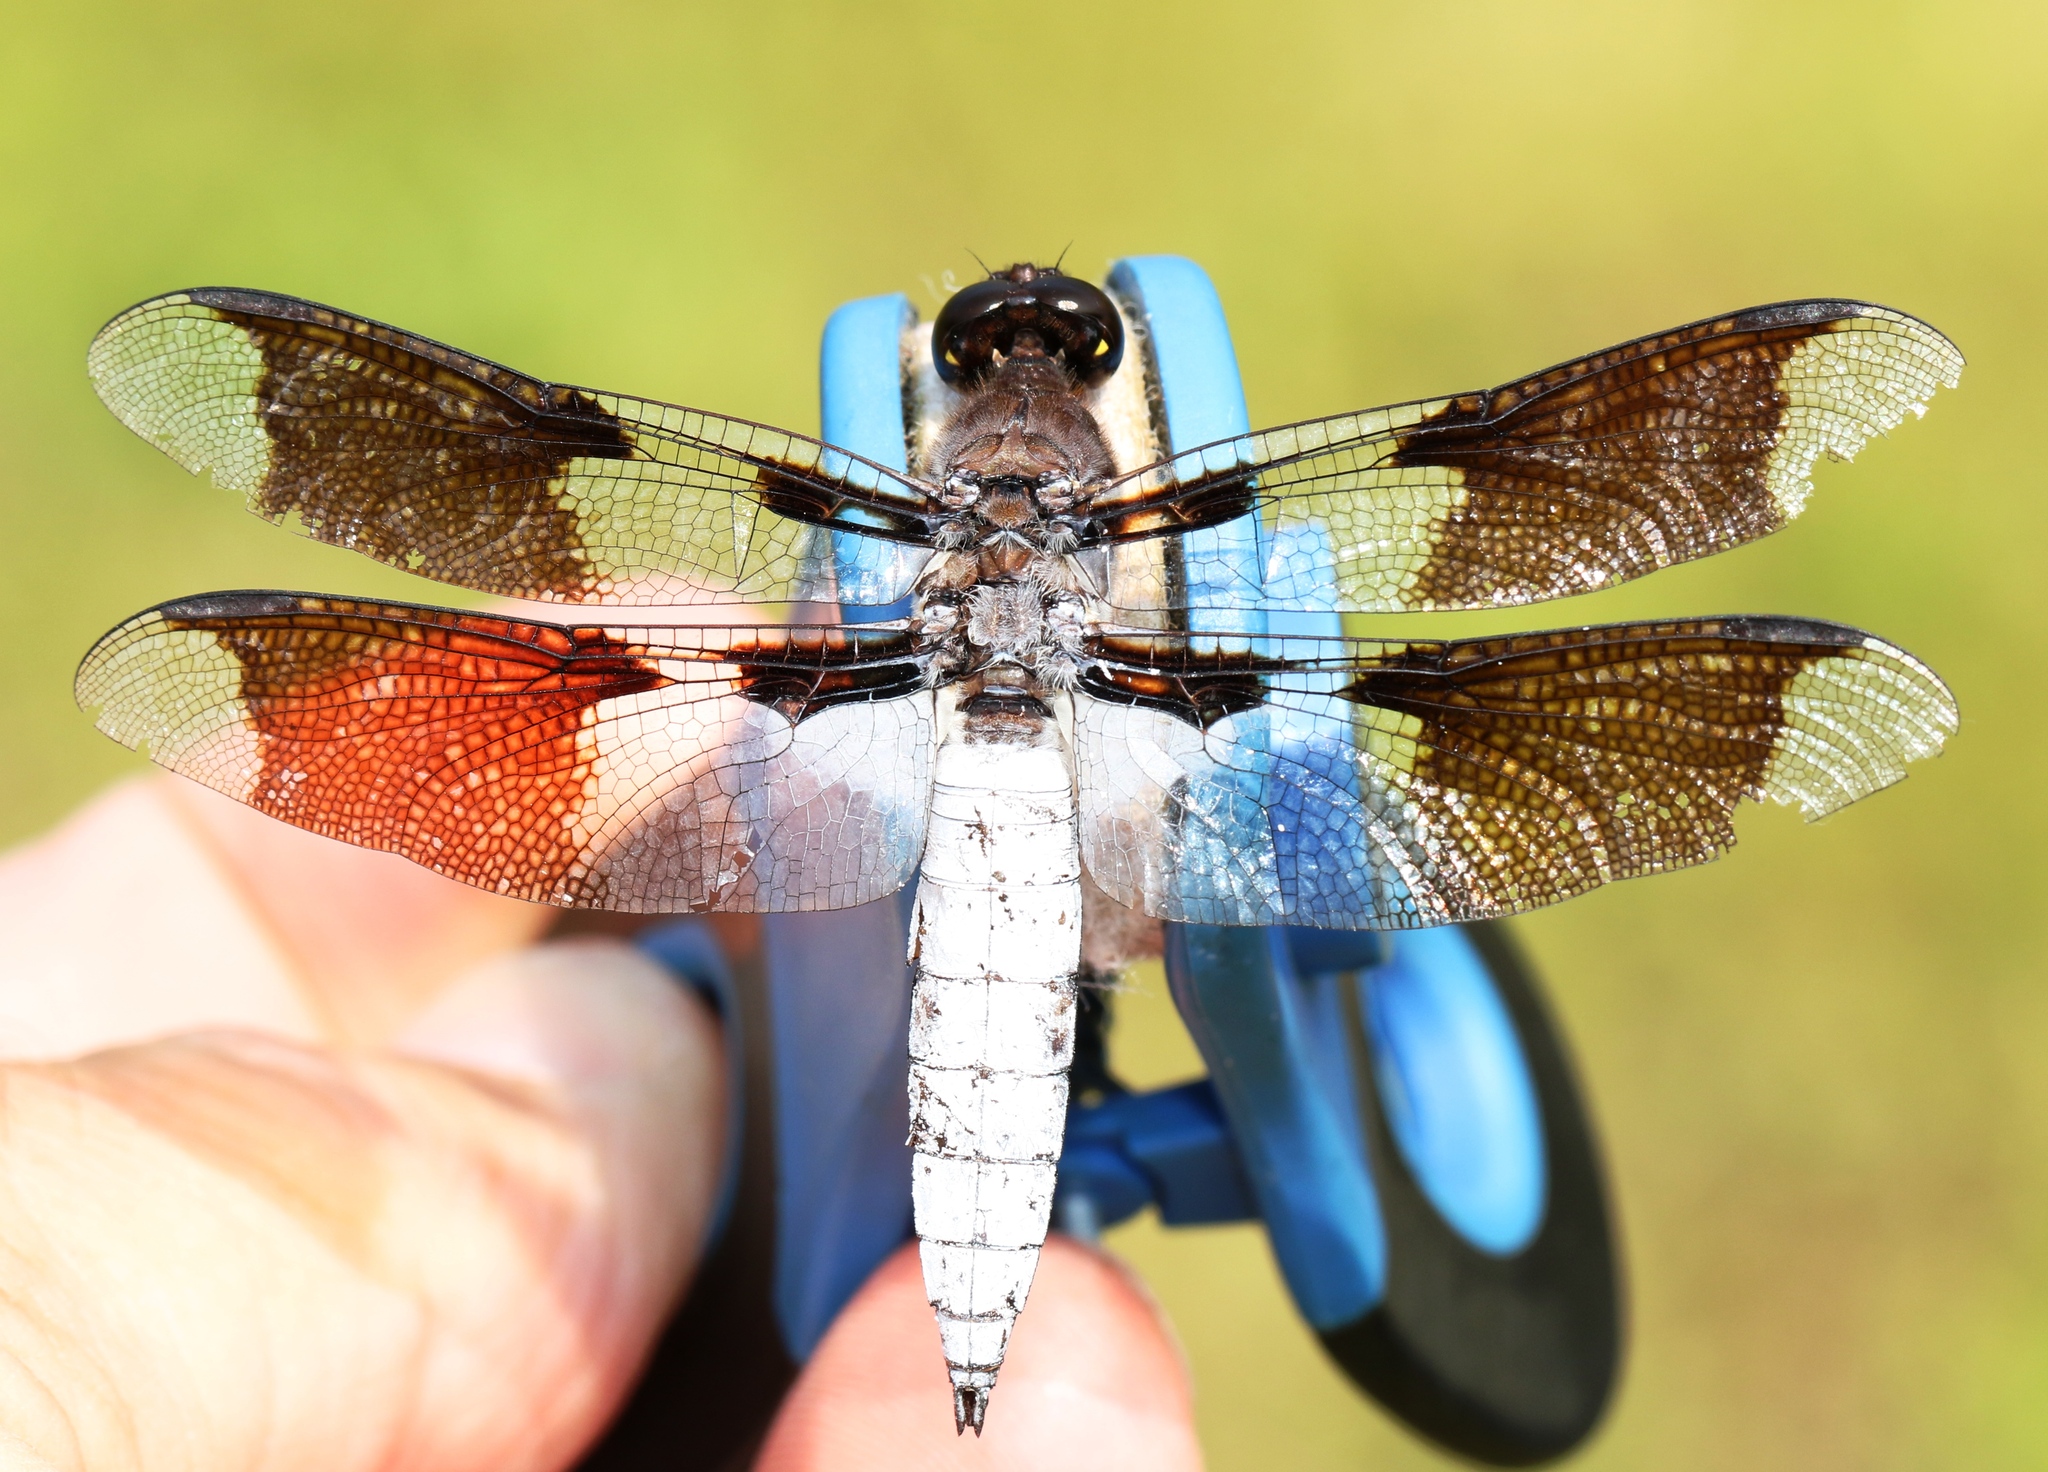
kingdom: Animalia
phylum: Arthropoda
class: Insecta
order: Odonata
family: Libellulidae
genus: Plathemis
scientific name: Plathemis lydia
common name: Common whitetail
